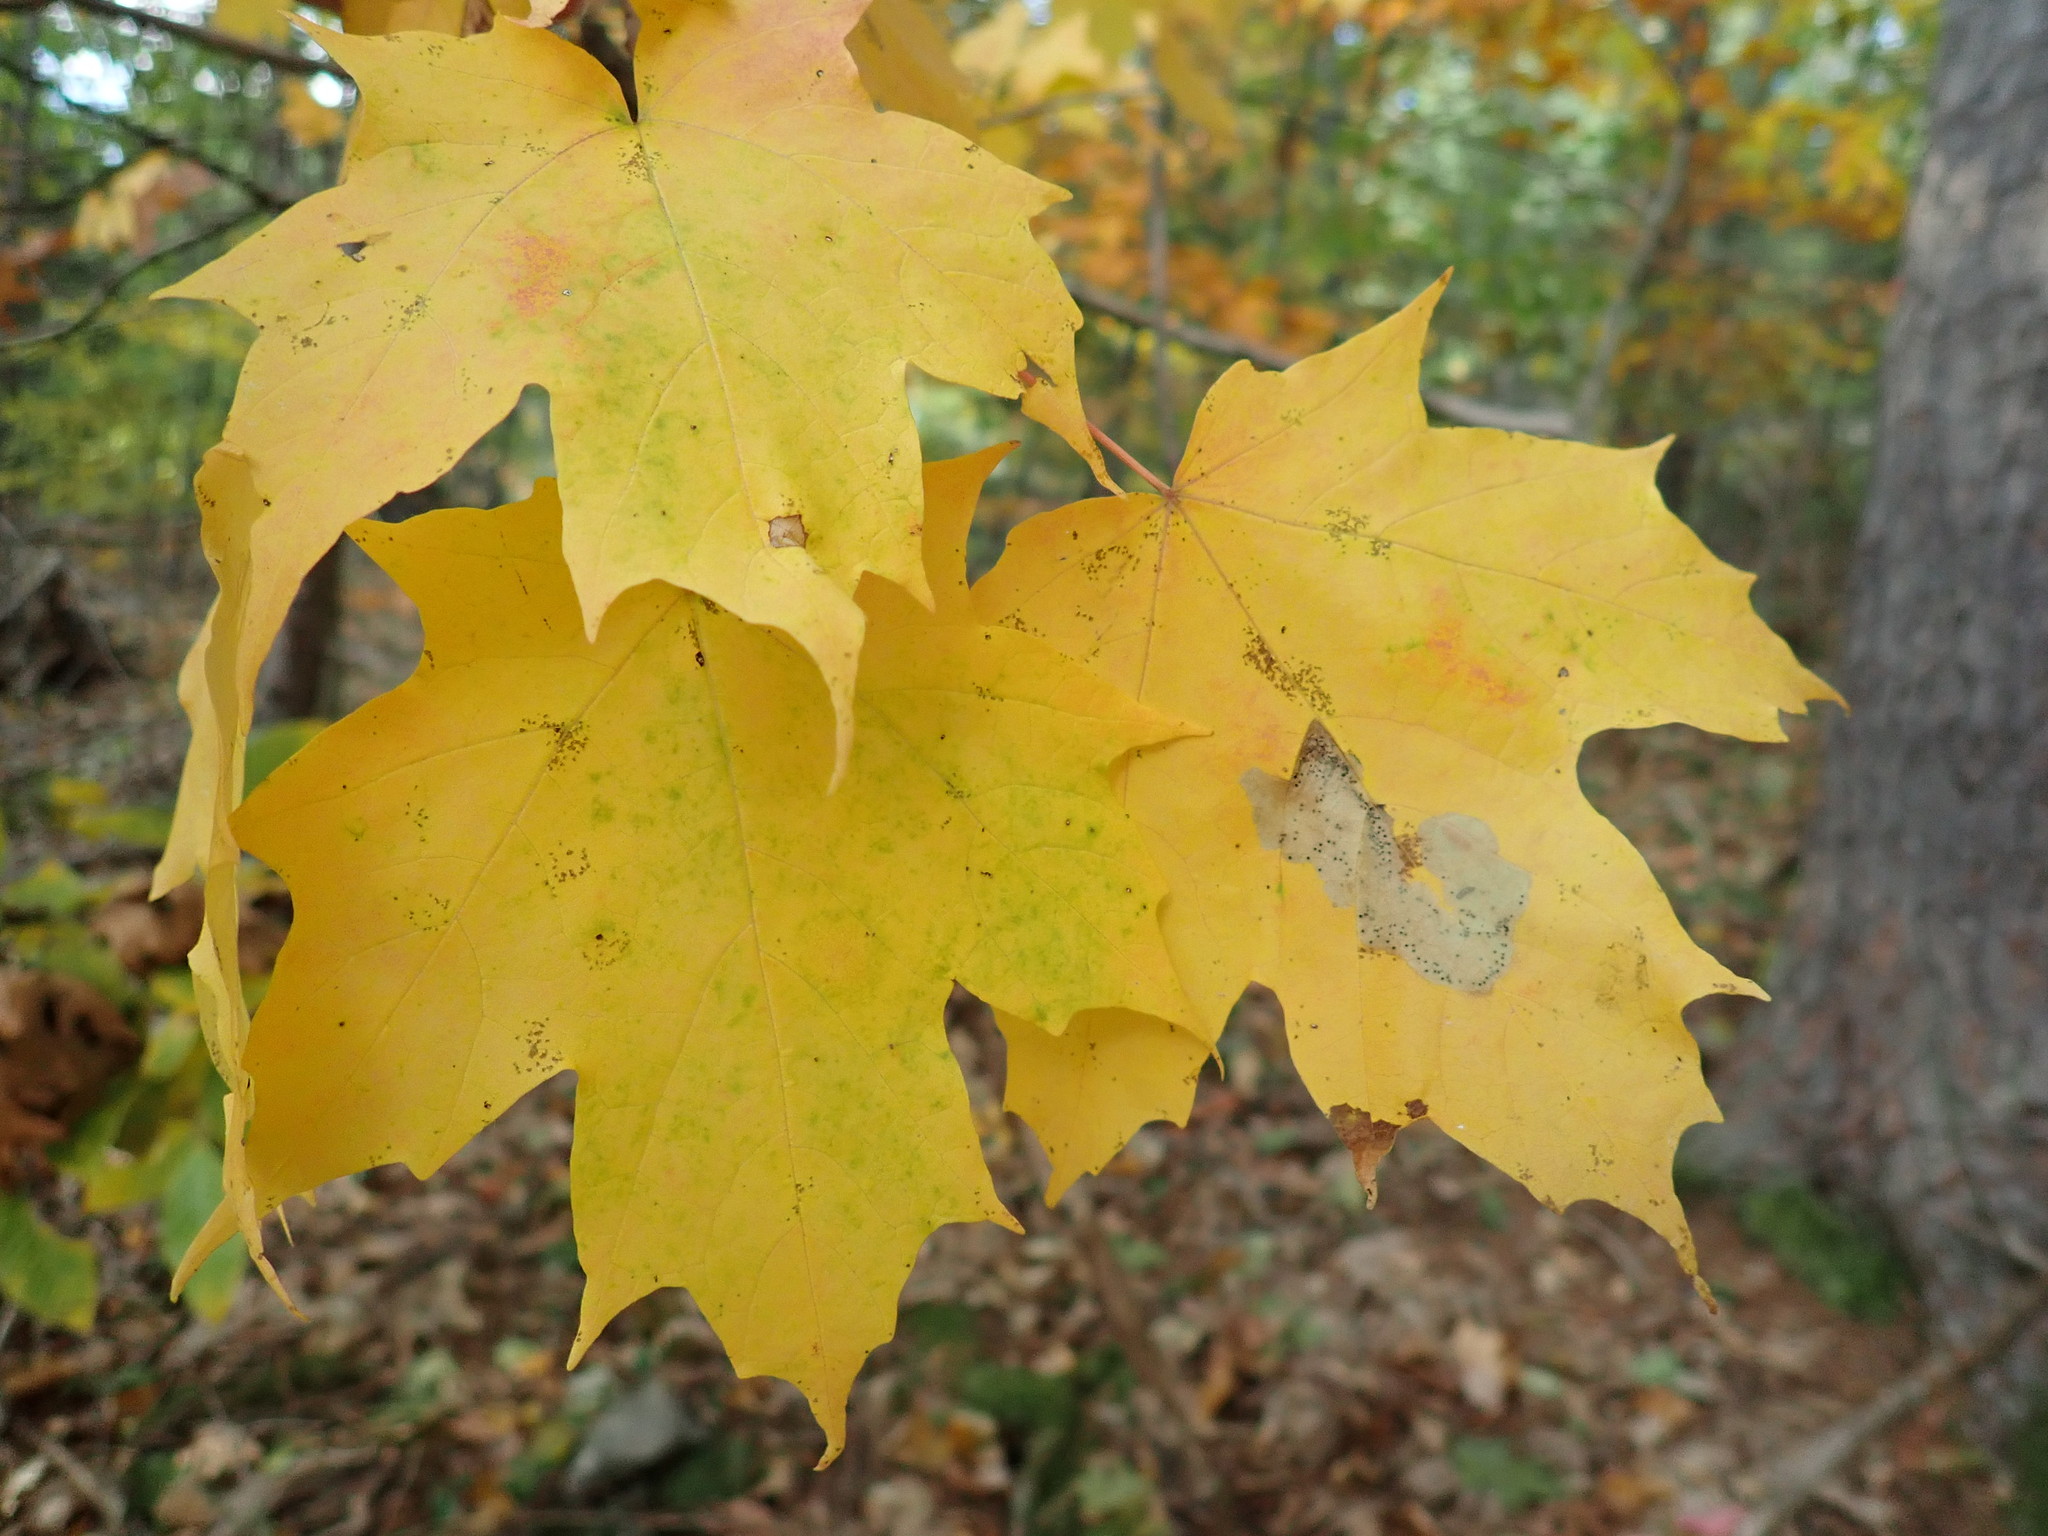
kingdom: Plantae
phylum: Tracheophyta
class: Magnoliopsida
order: Sapindales
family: Sapindaceae
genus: Acer
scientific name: Acer saccharum
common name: Sugar maple
